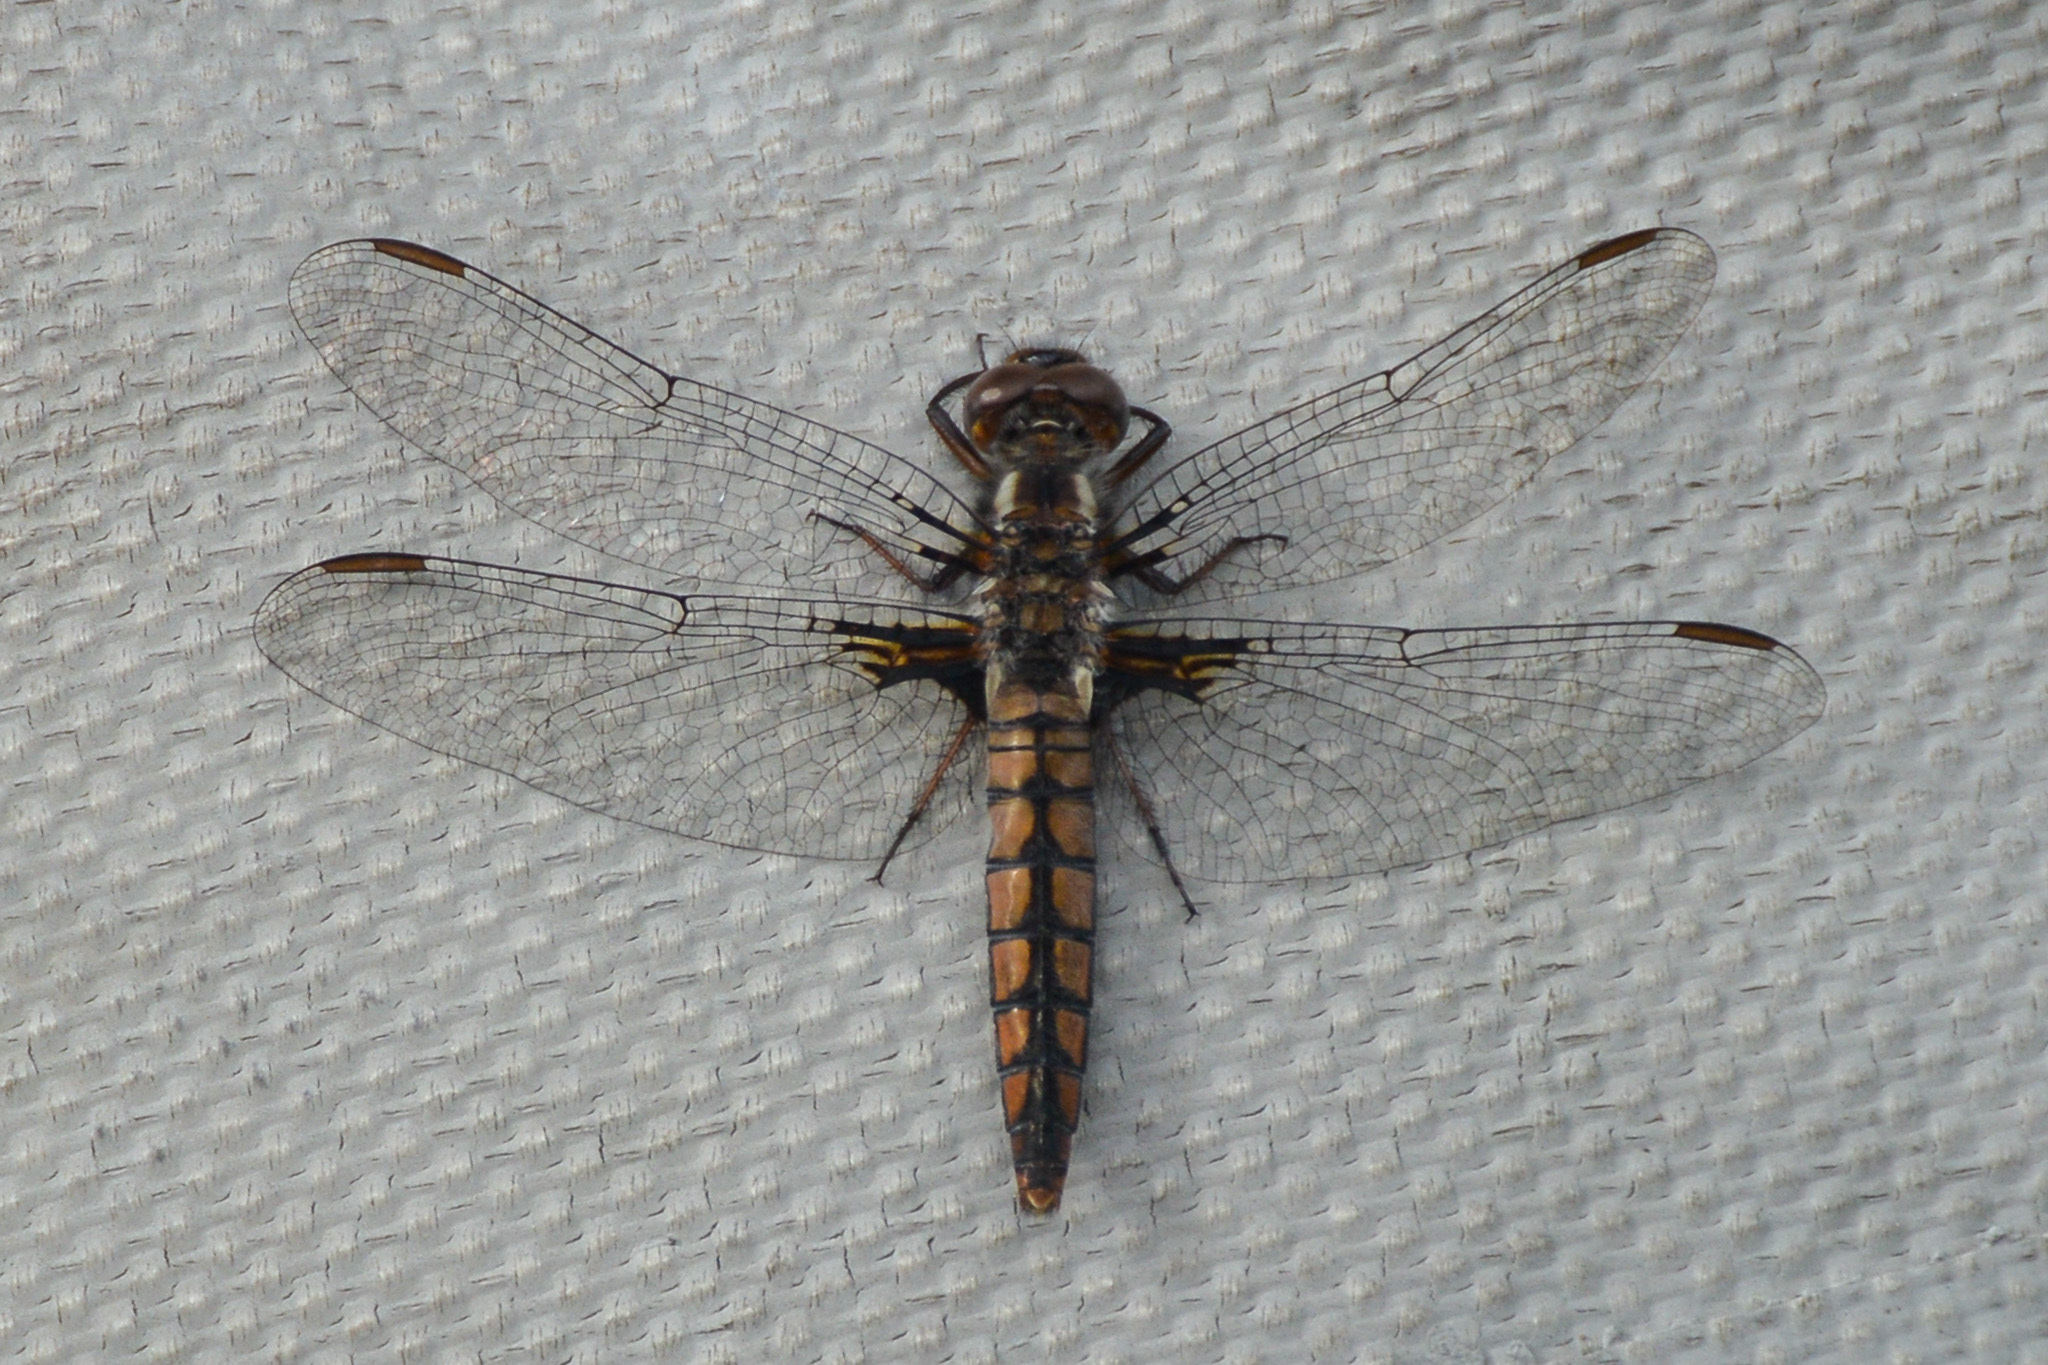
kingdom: Animalia
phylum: Arthropoda
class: Insecta
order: Odonata
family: Libellulidae
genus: Ladona
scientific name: Ladona deplanata
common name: Blue corporal
